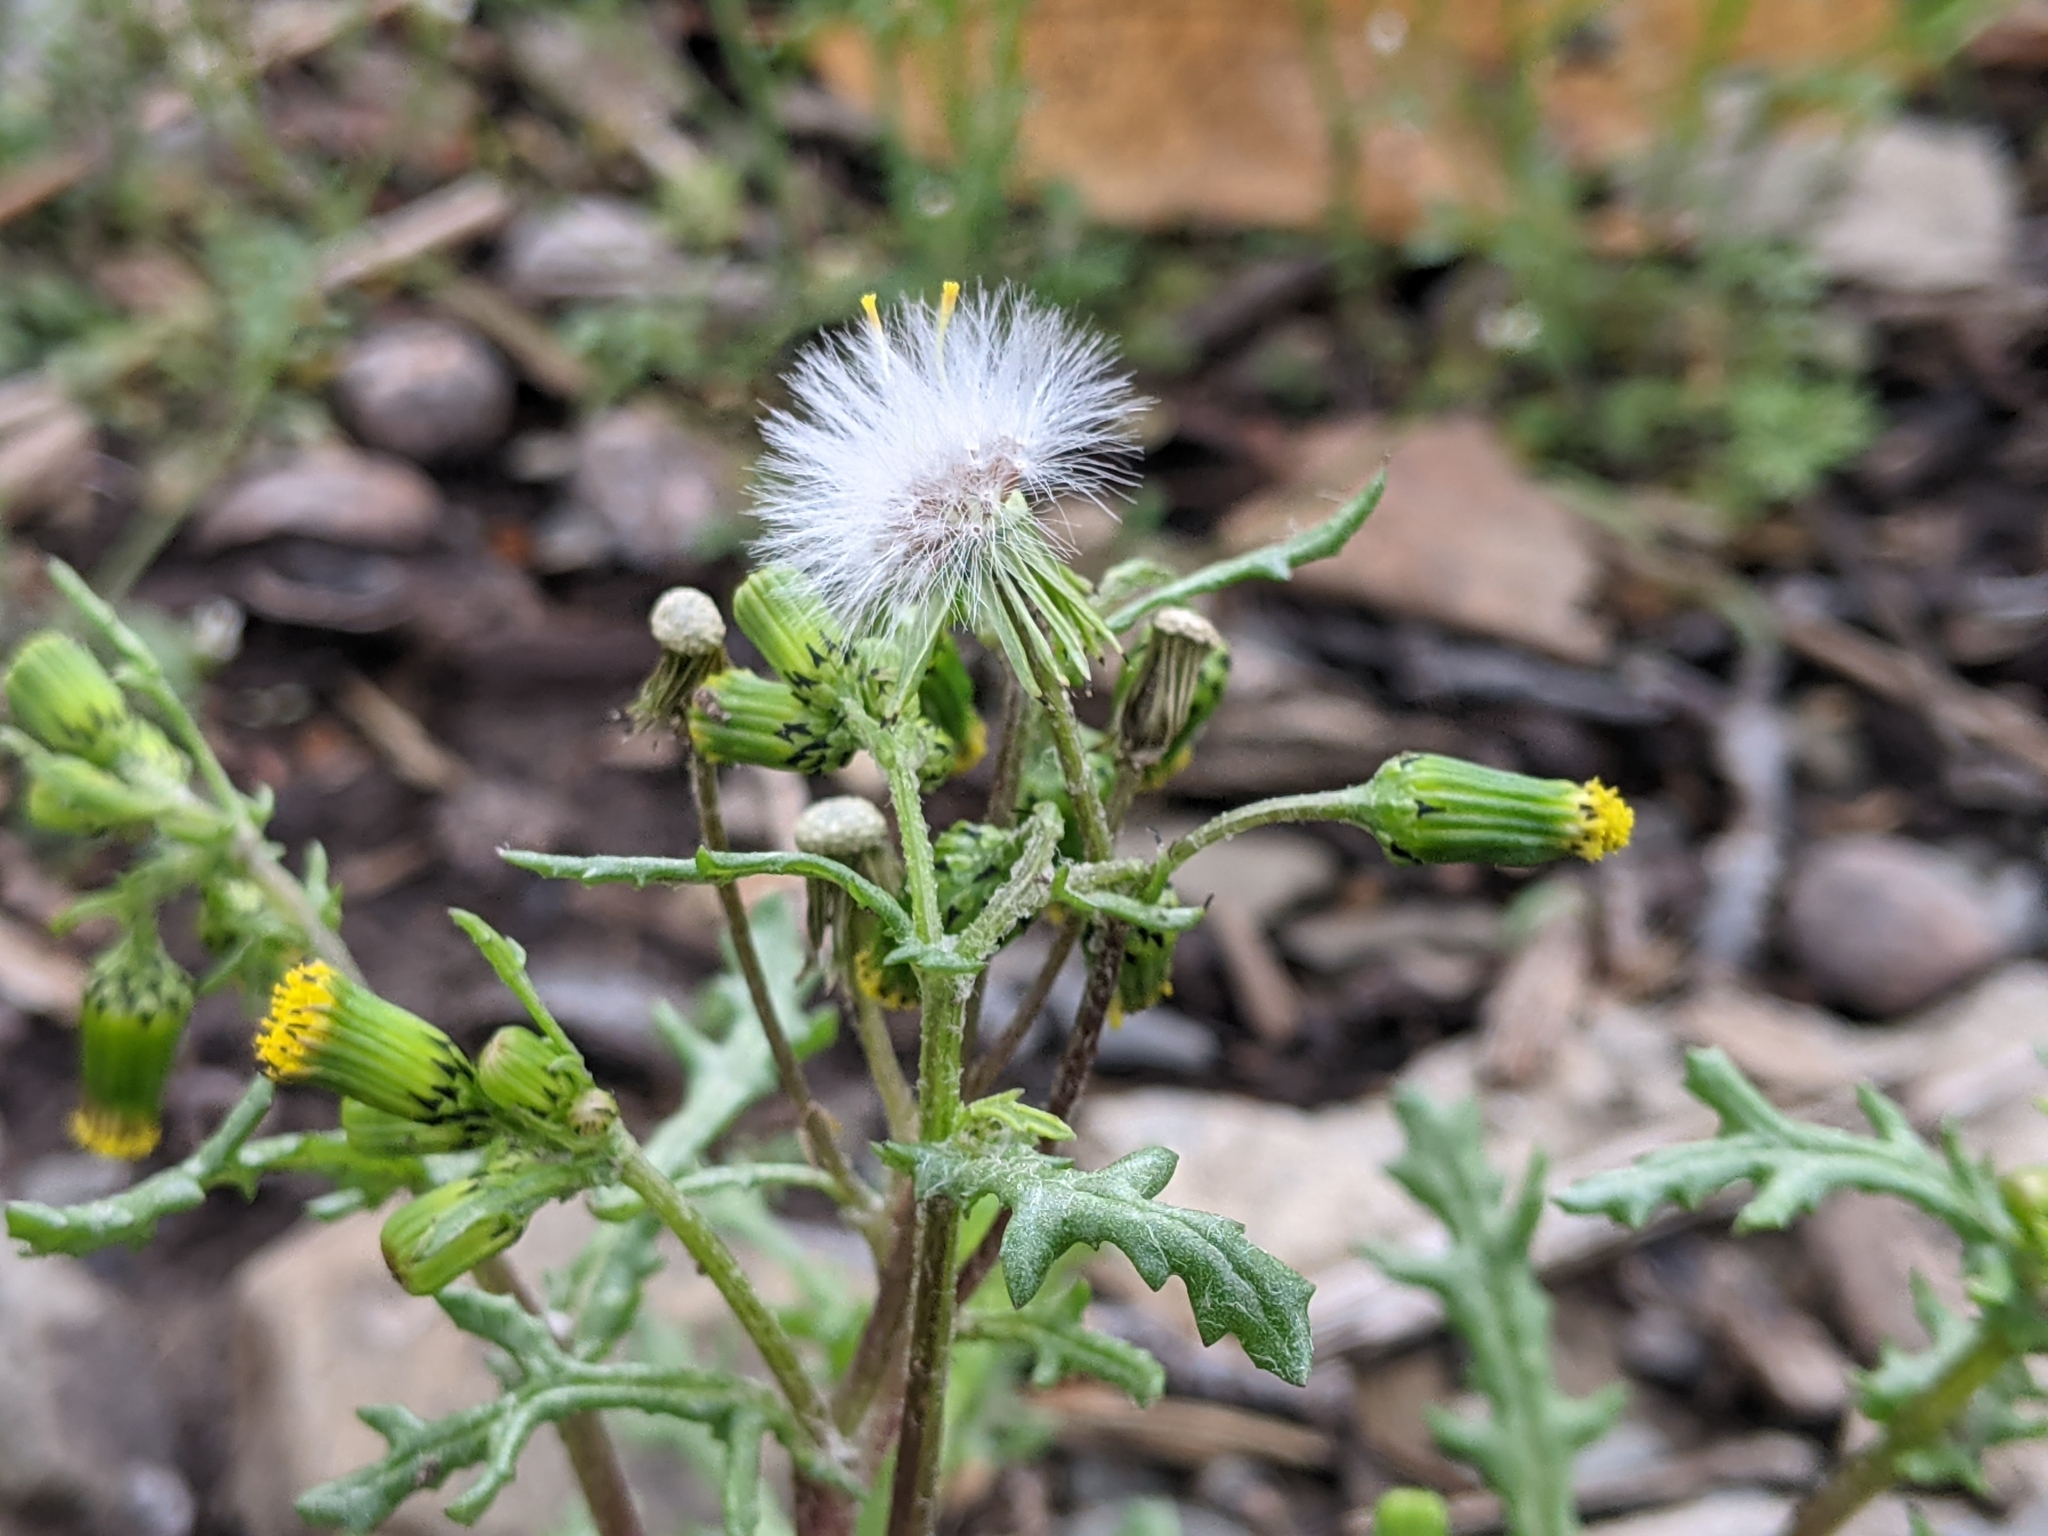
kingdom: Plantae
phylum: Tracheophyta
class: Magnoliopsida
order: Asterales
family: Asteraceae
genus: Senecio
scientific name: Senecio vulgaris
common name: Old-man-in-the-spring
